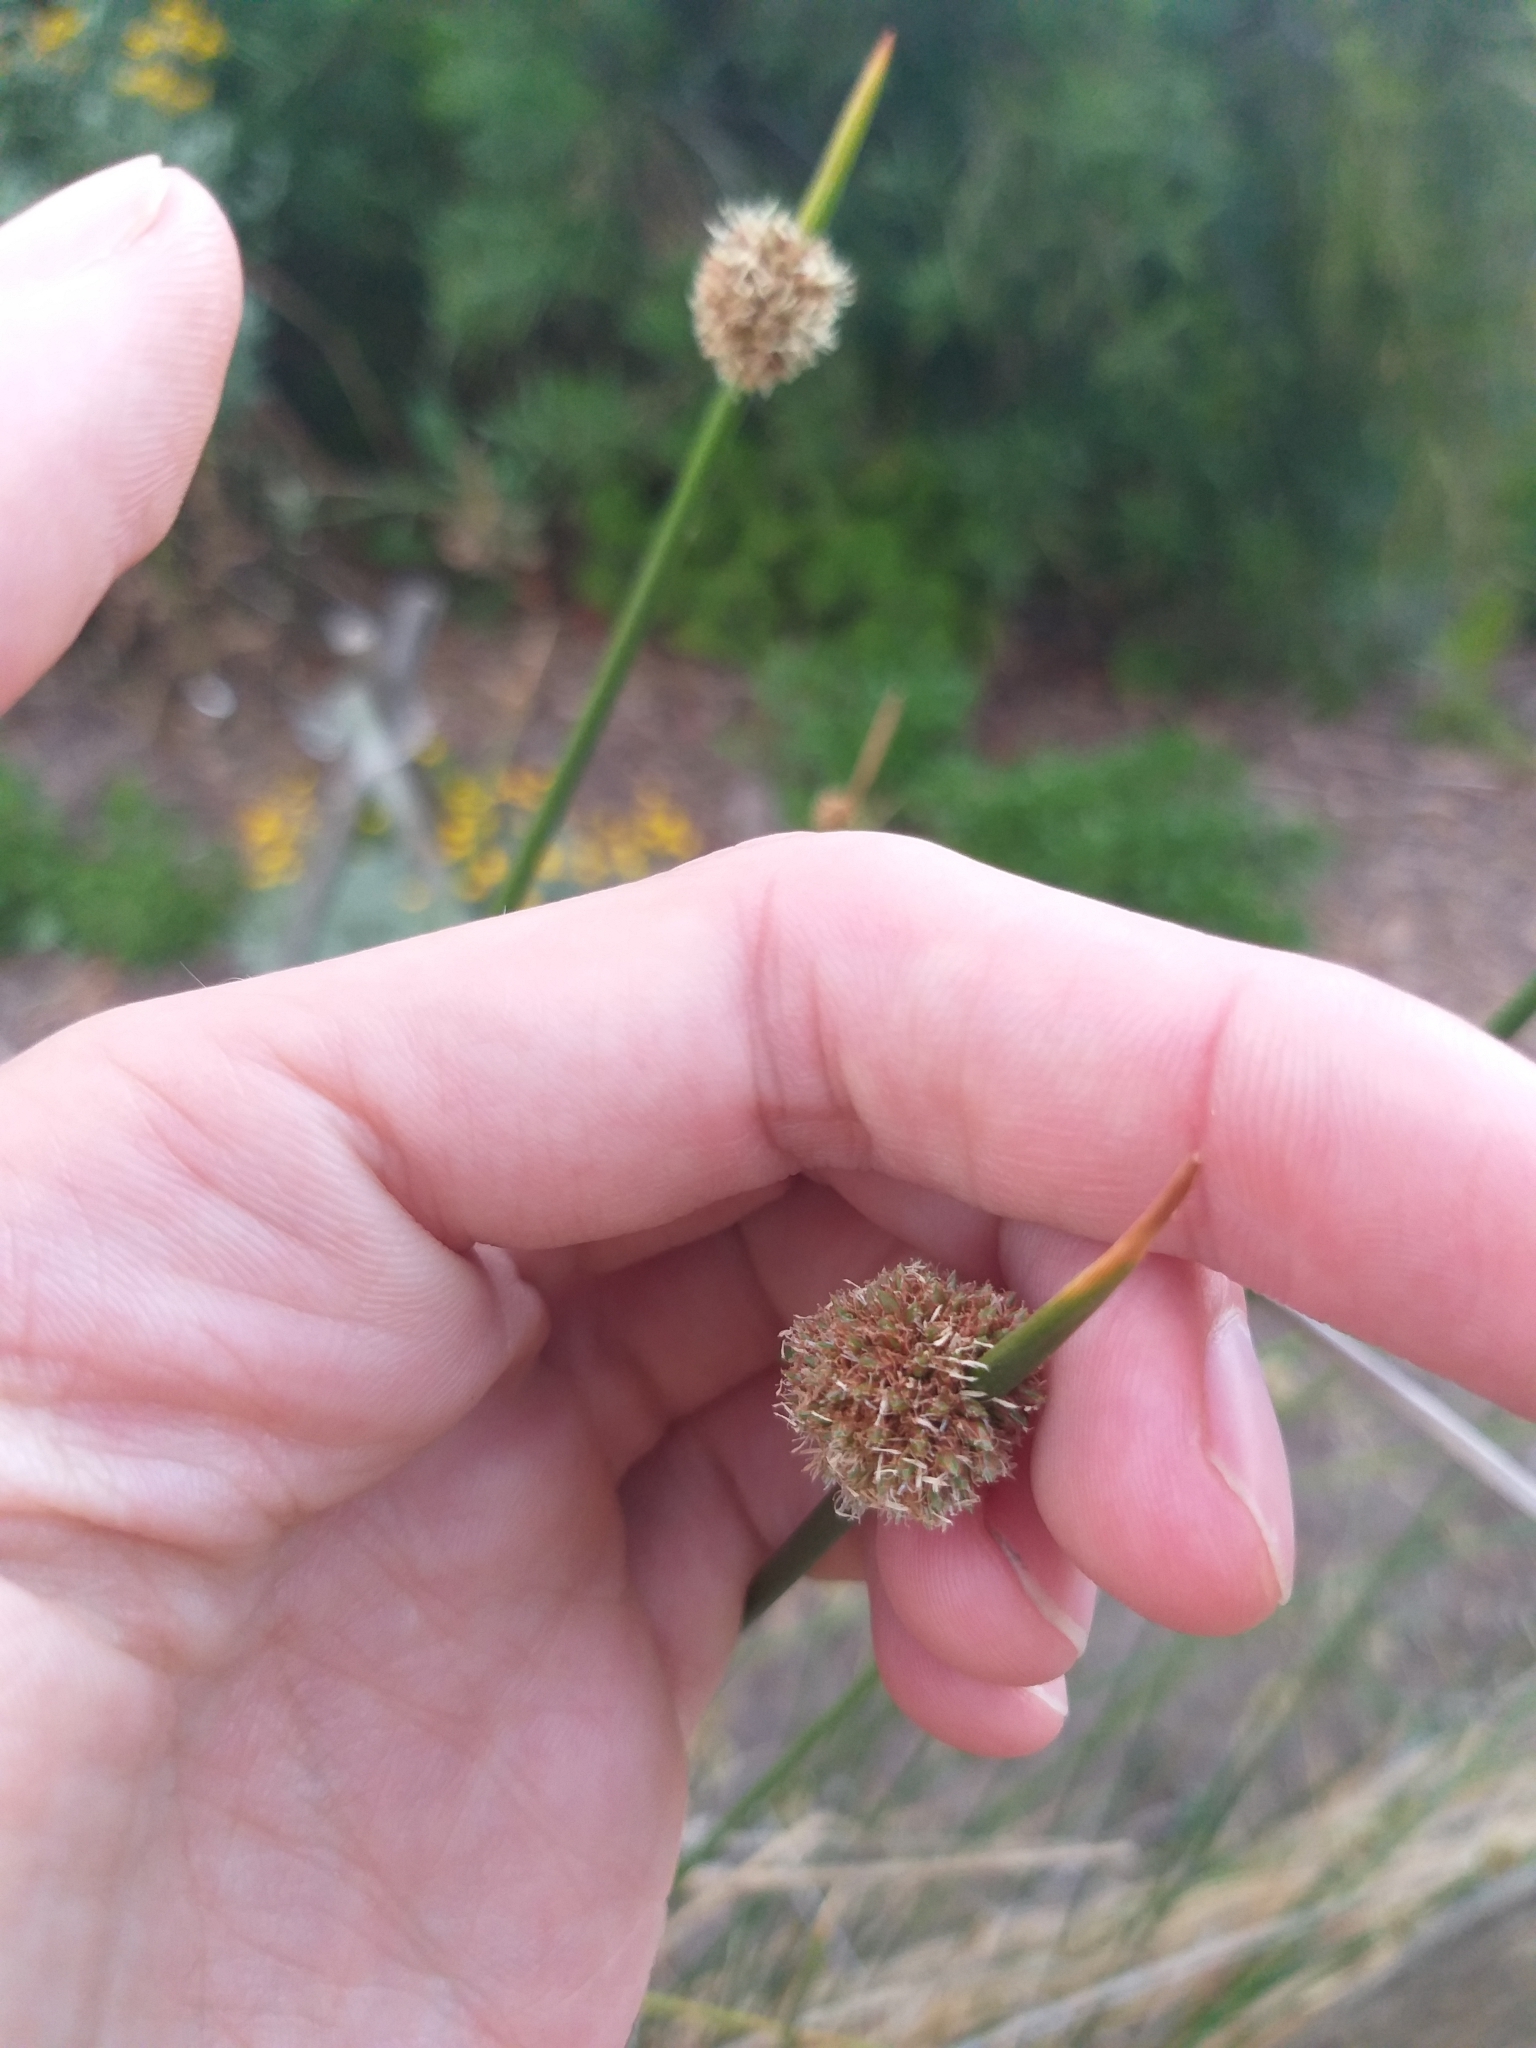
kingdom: Plantae
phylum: Tracheophyta
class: Liliopsida
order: Poales
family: Cyperaceae
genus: Ficinia
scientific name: Ficinia nodosa
